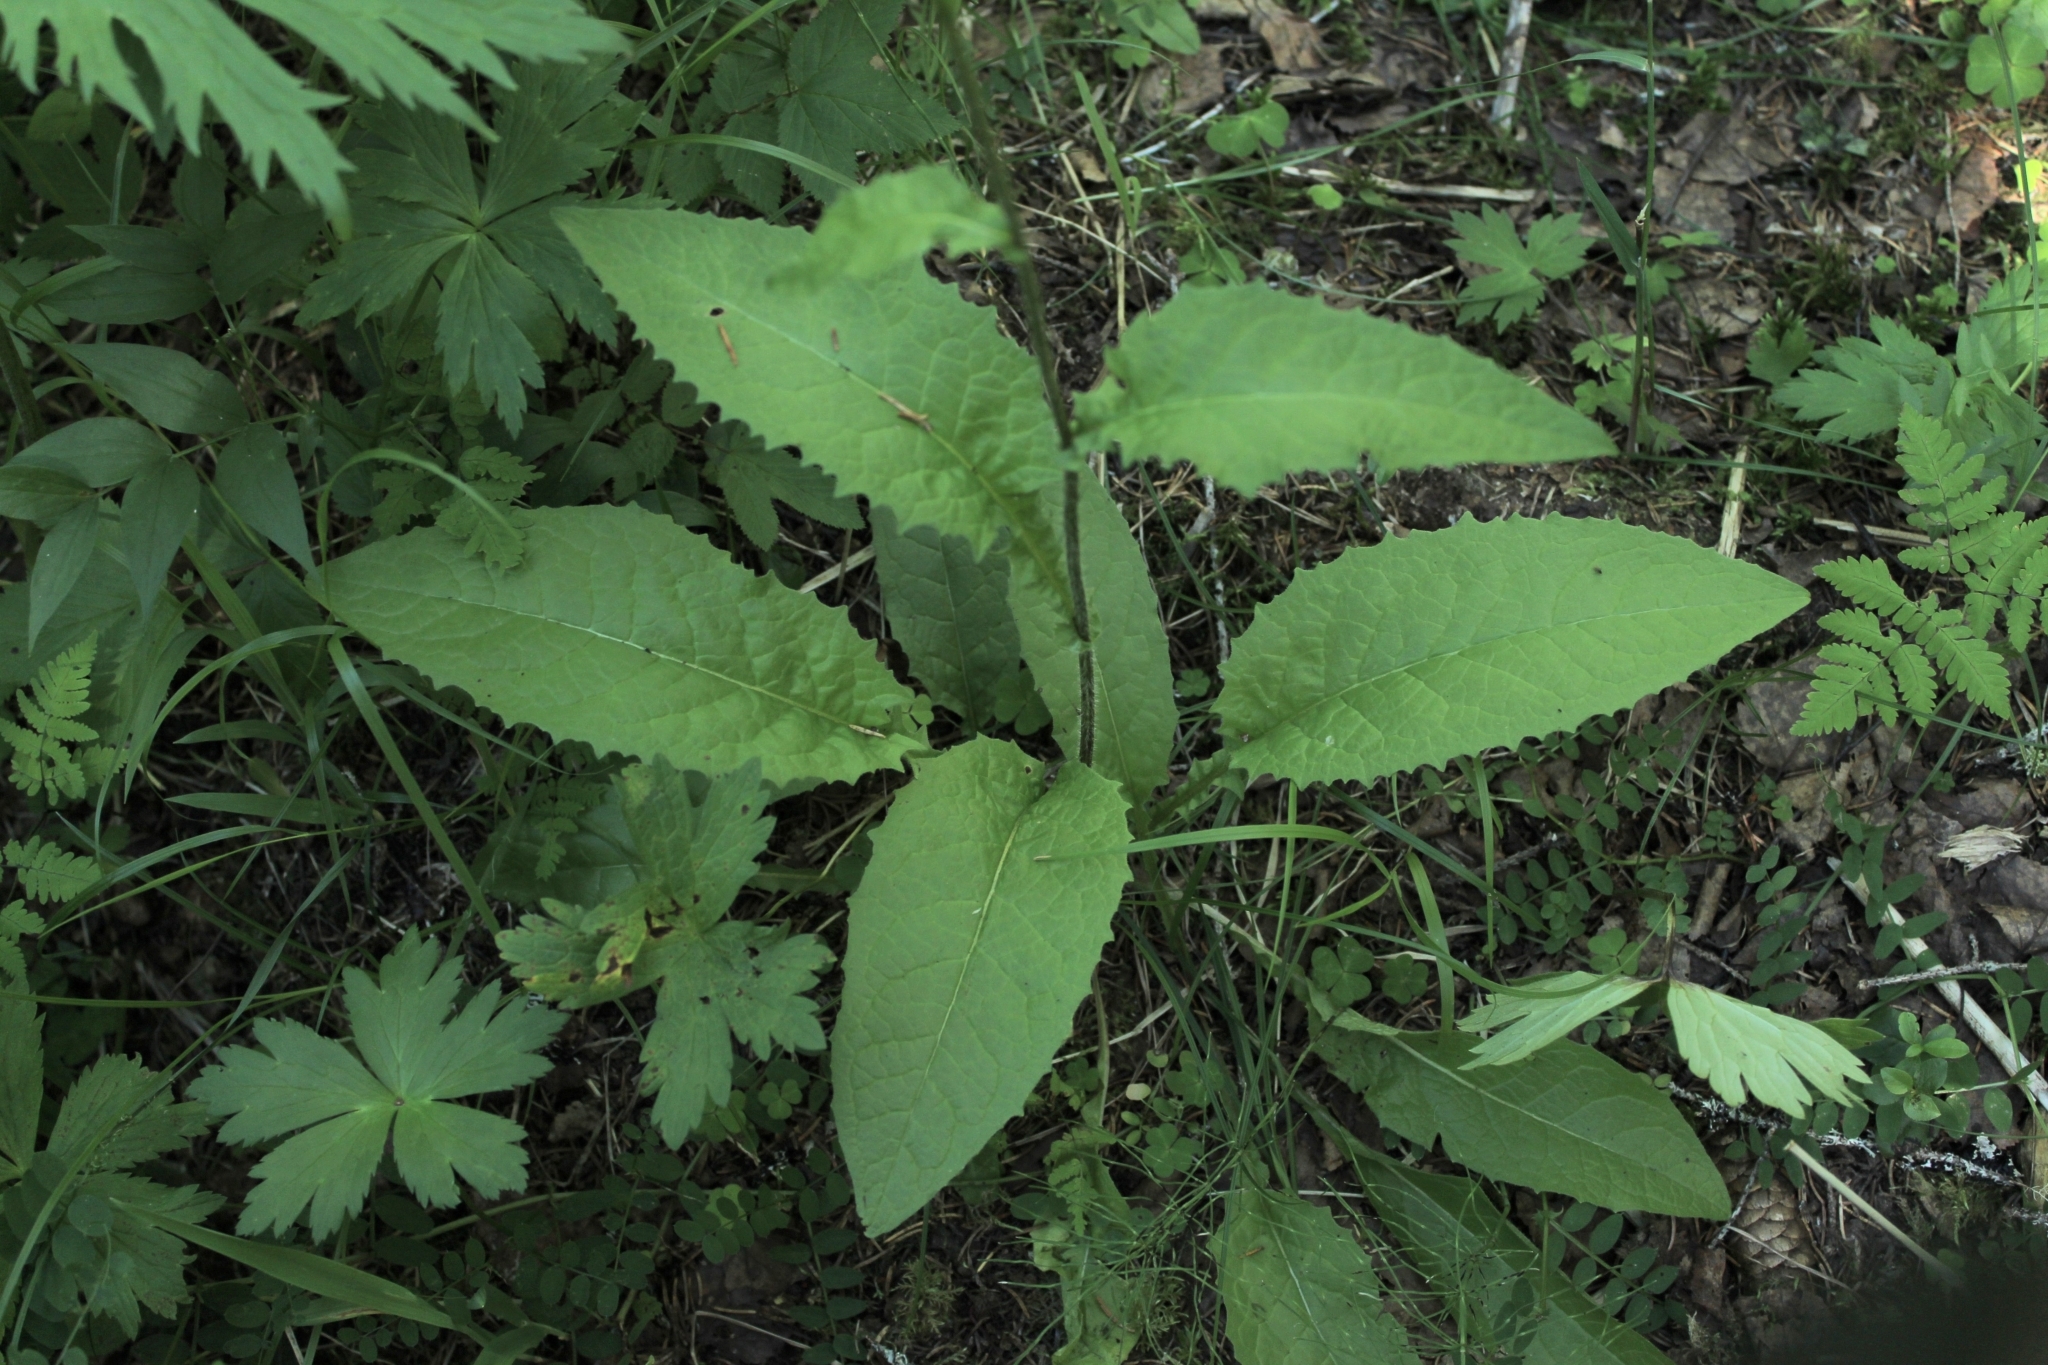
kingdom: Plantae
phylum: Tracheophyta
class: Magnoliopsida
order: Asterales
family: Asteraceae
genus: Crepis
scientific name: Crepis sibirica
